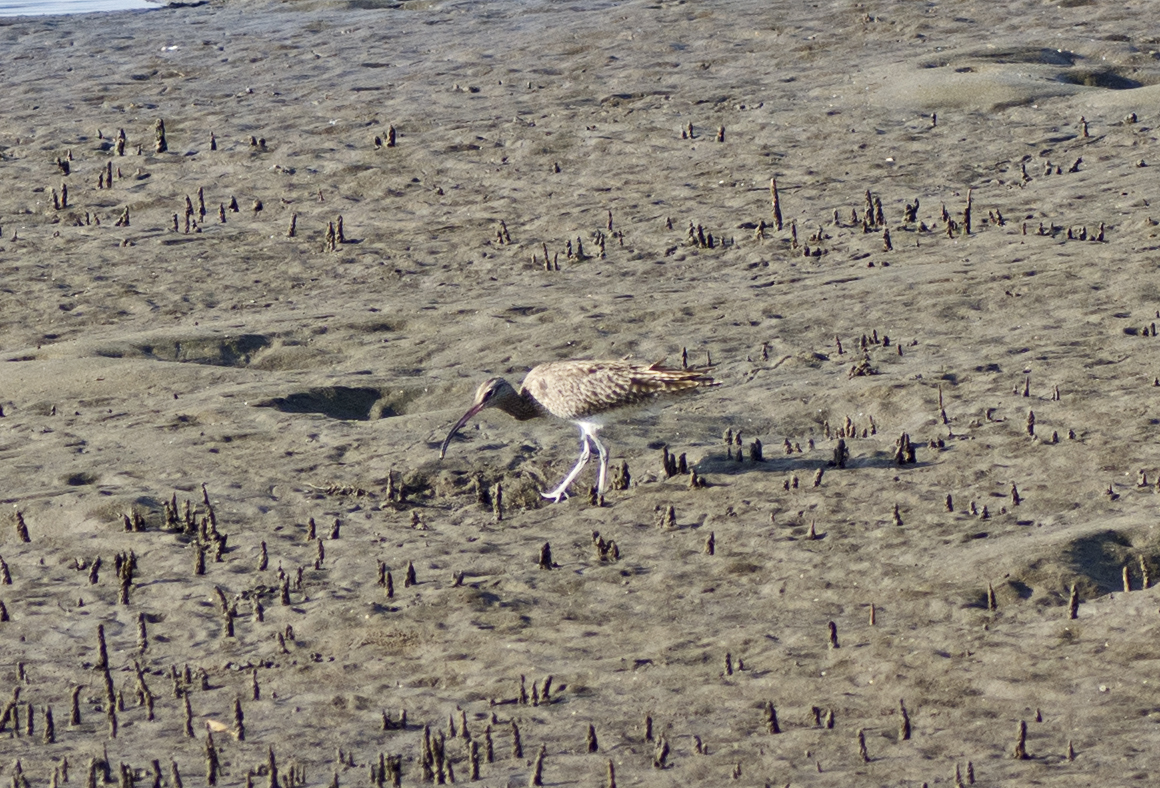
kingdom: Animalia
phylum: Chordata
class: Aves
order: Charadriiformes
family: Scolopacidae
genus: Numenius
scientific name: Numenius phaeopus
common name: Whimbrel
